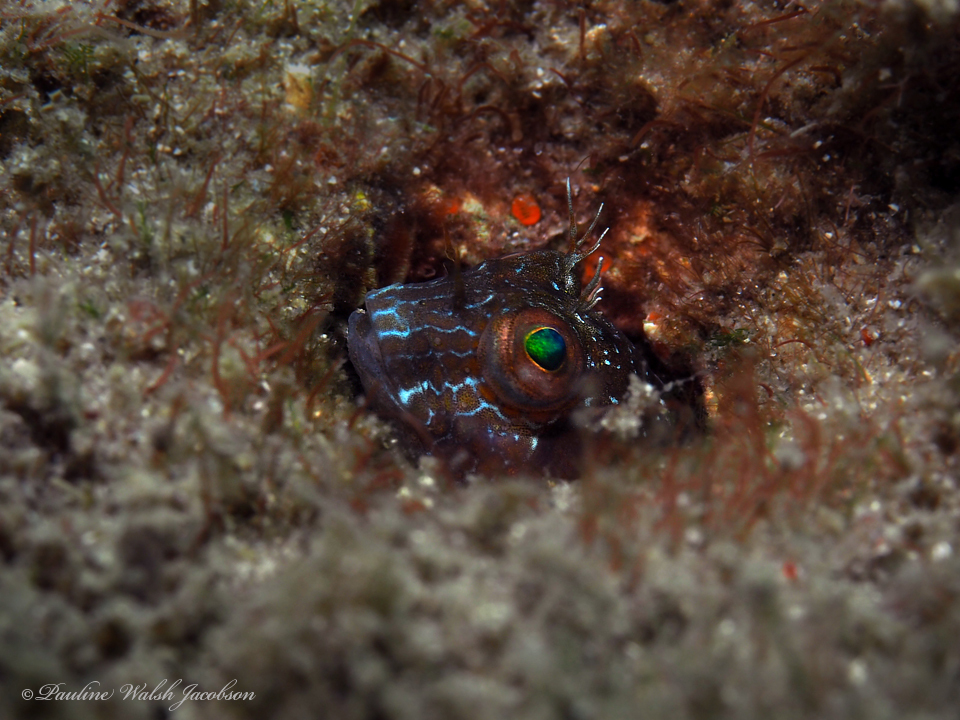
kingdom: Animalia
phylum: Chordata
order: Perciformes
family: Blenniidae
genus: Parablennius
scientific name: Parablennius marmoreus
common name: Seaweed blenny
